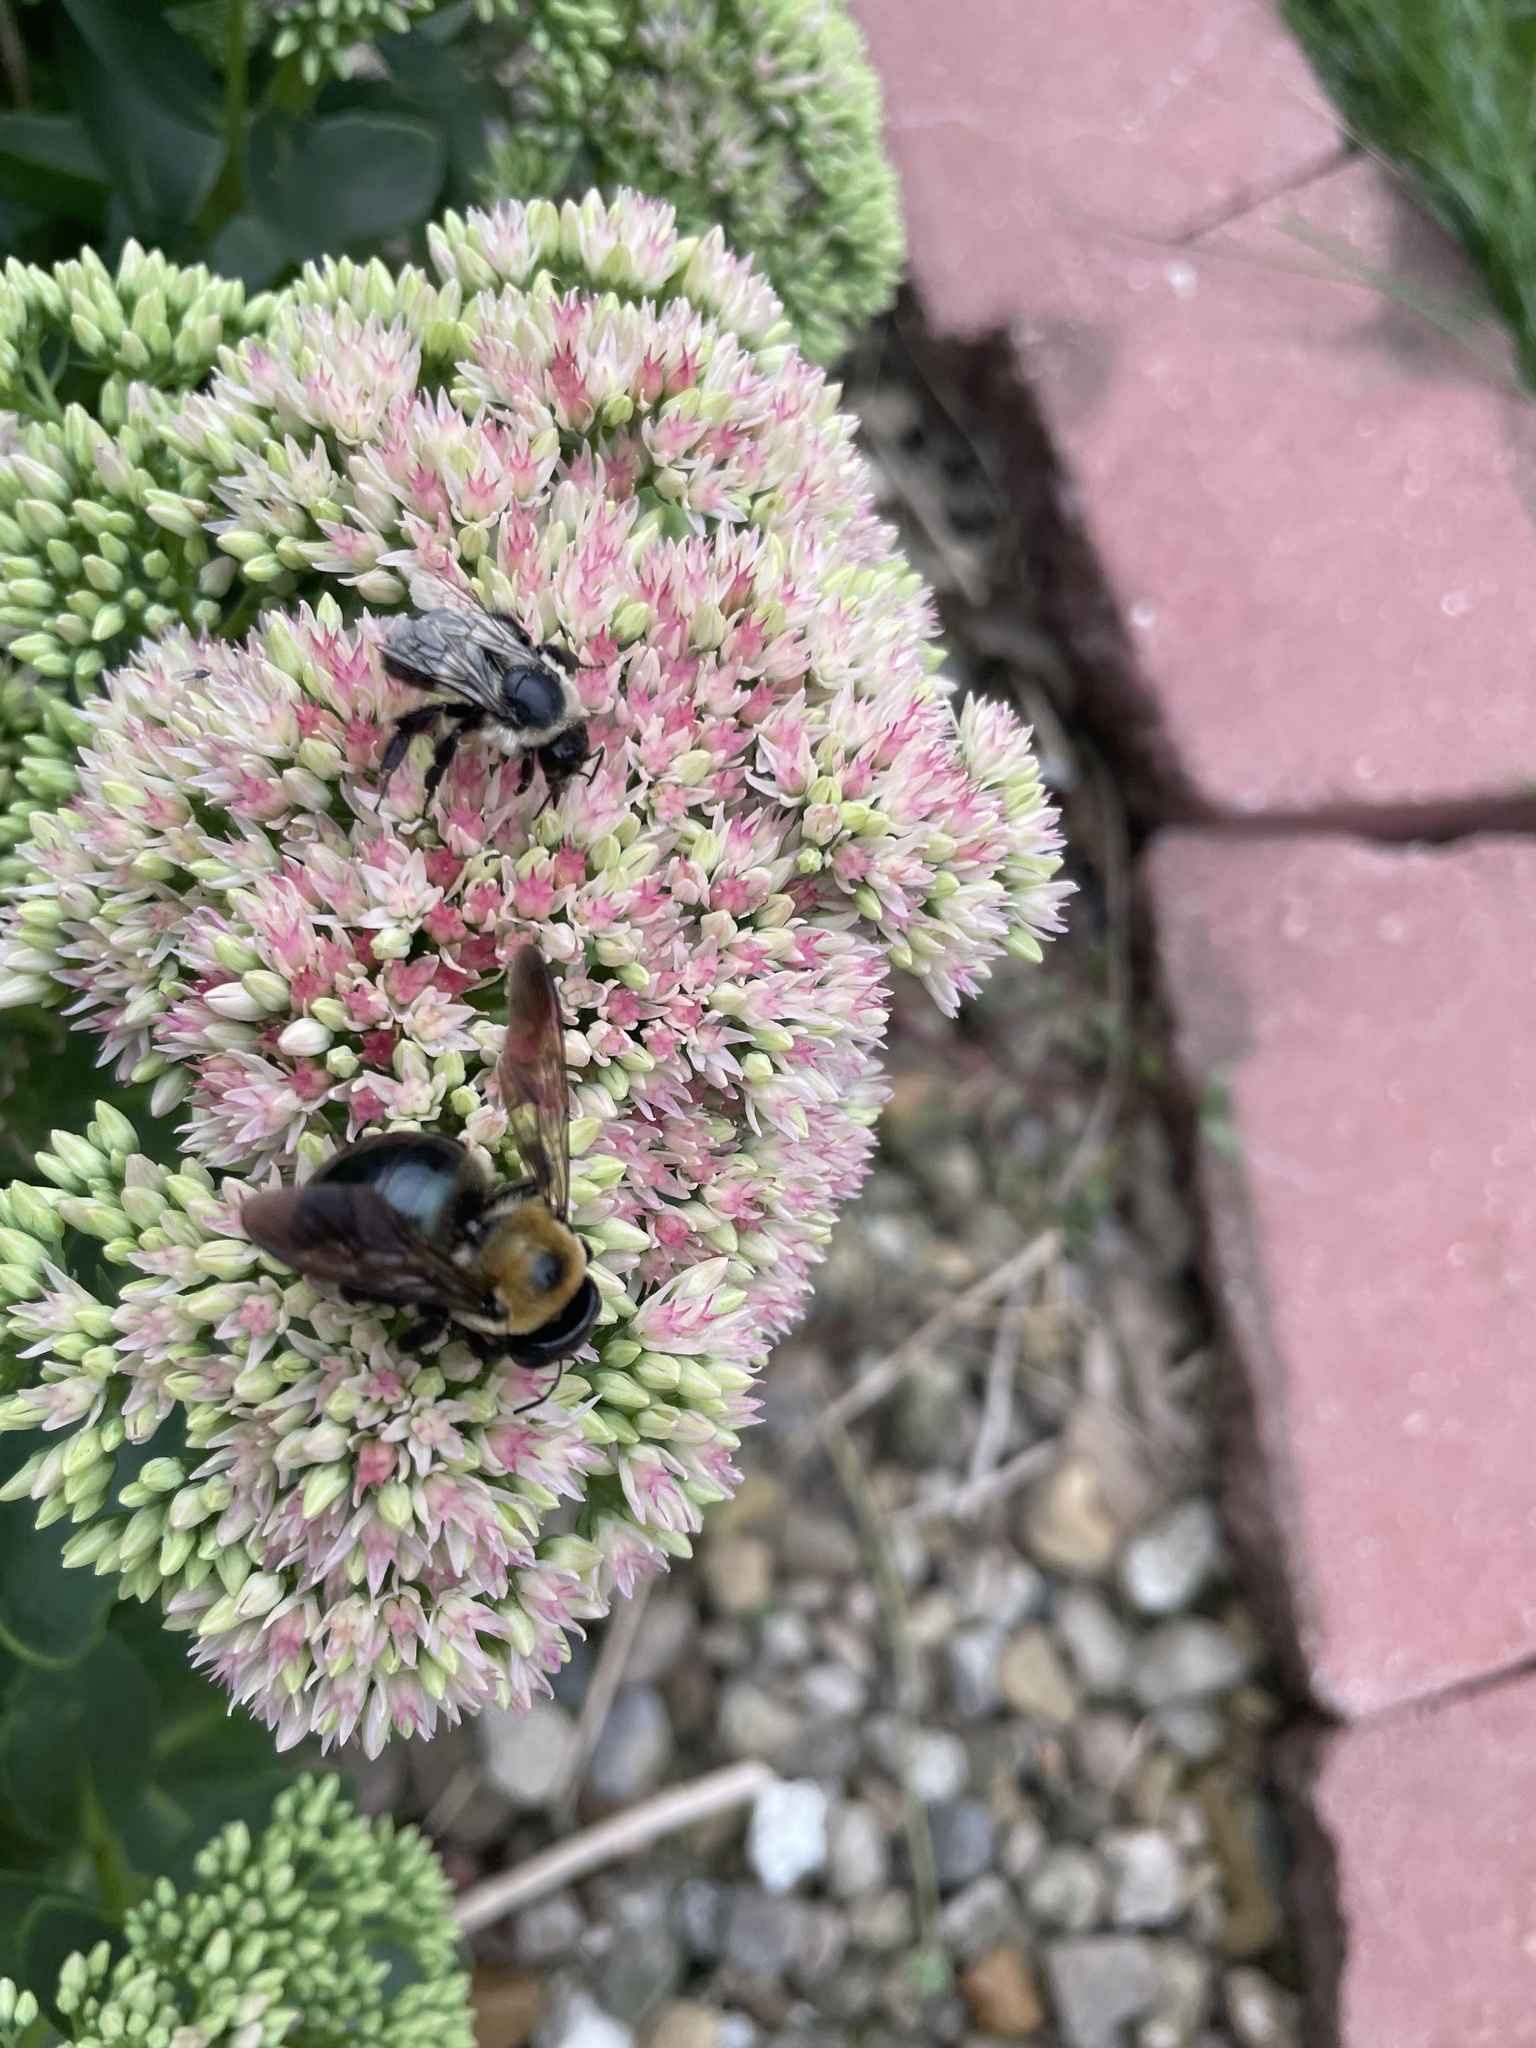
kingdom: Animalia
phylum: Arthropoda
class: Insecta
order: Hymenoptera
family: Apidae
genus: Bombus
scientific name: Bombus impatiens
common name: Common eastern bumble bee
